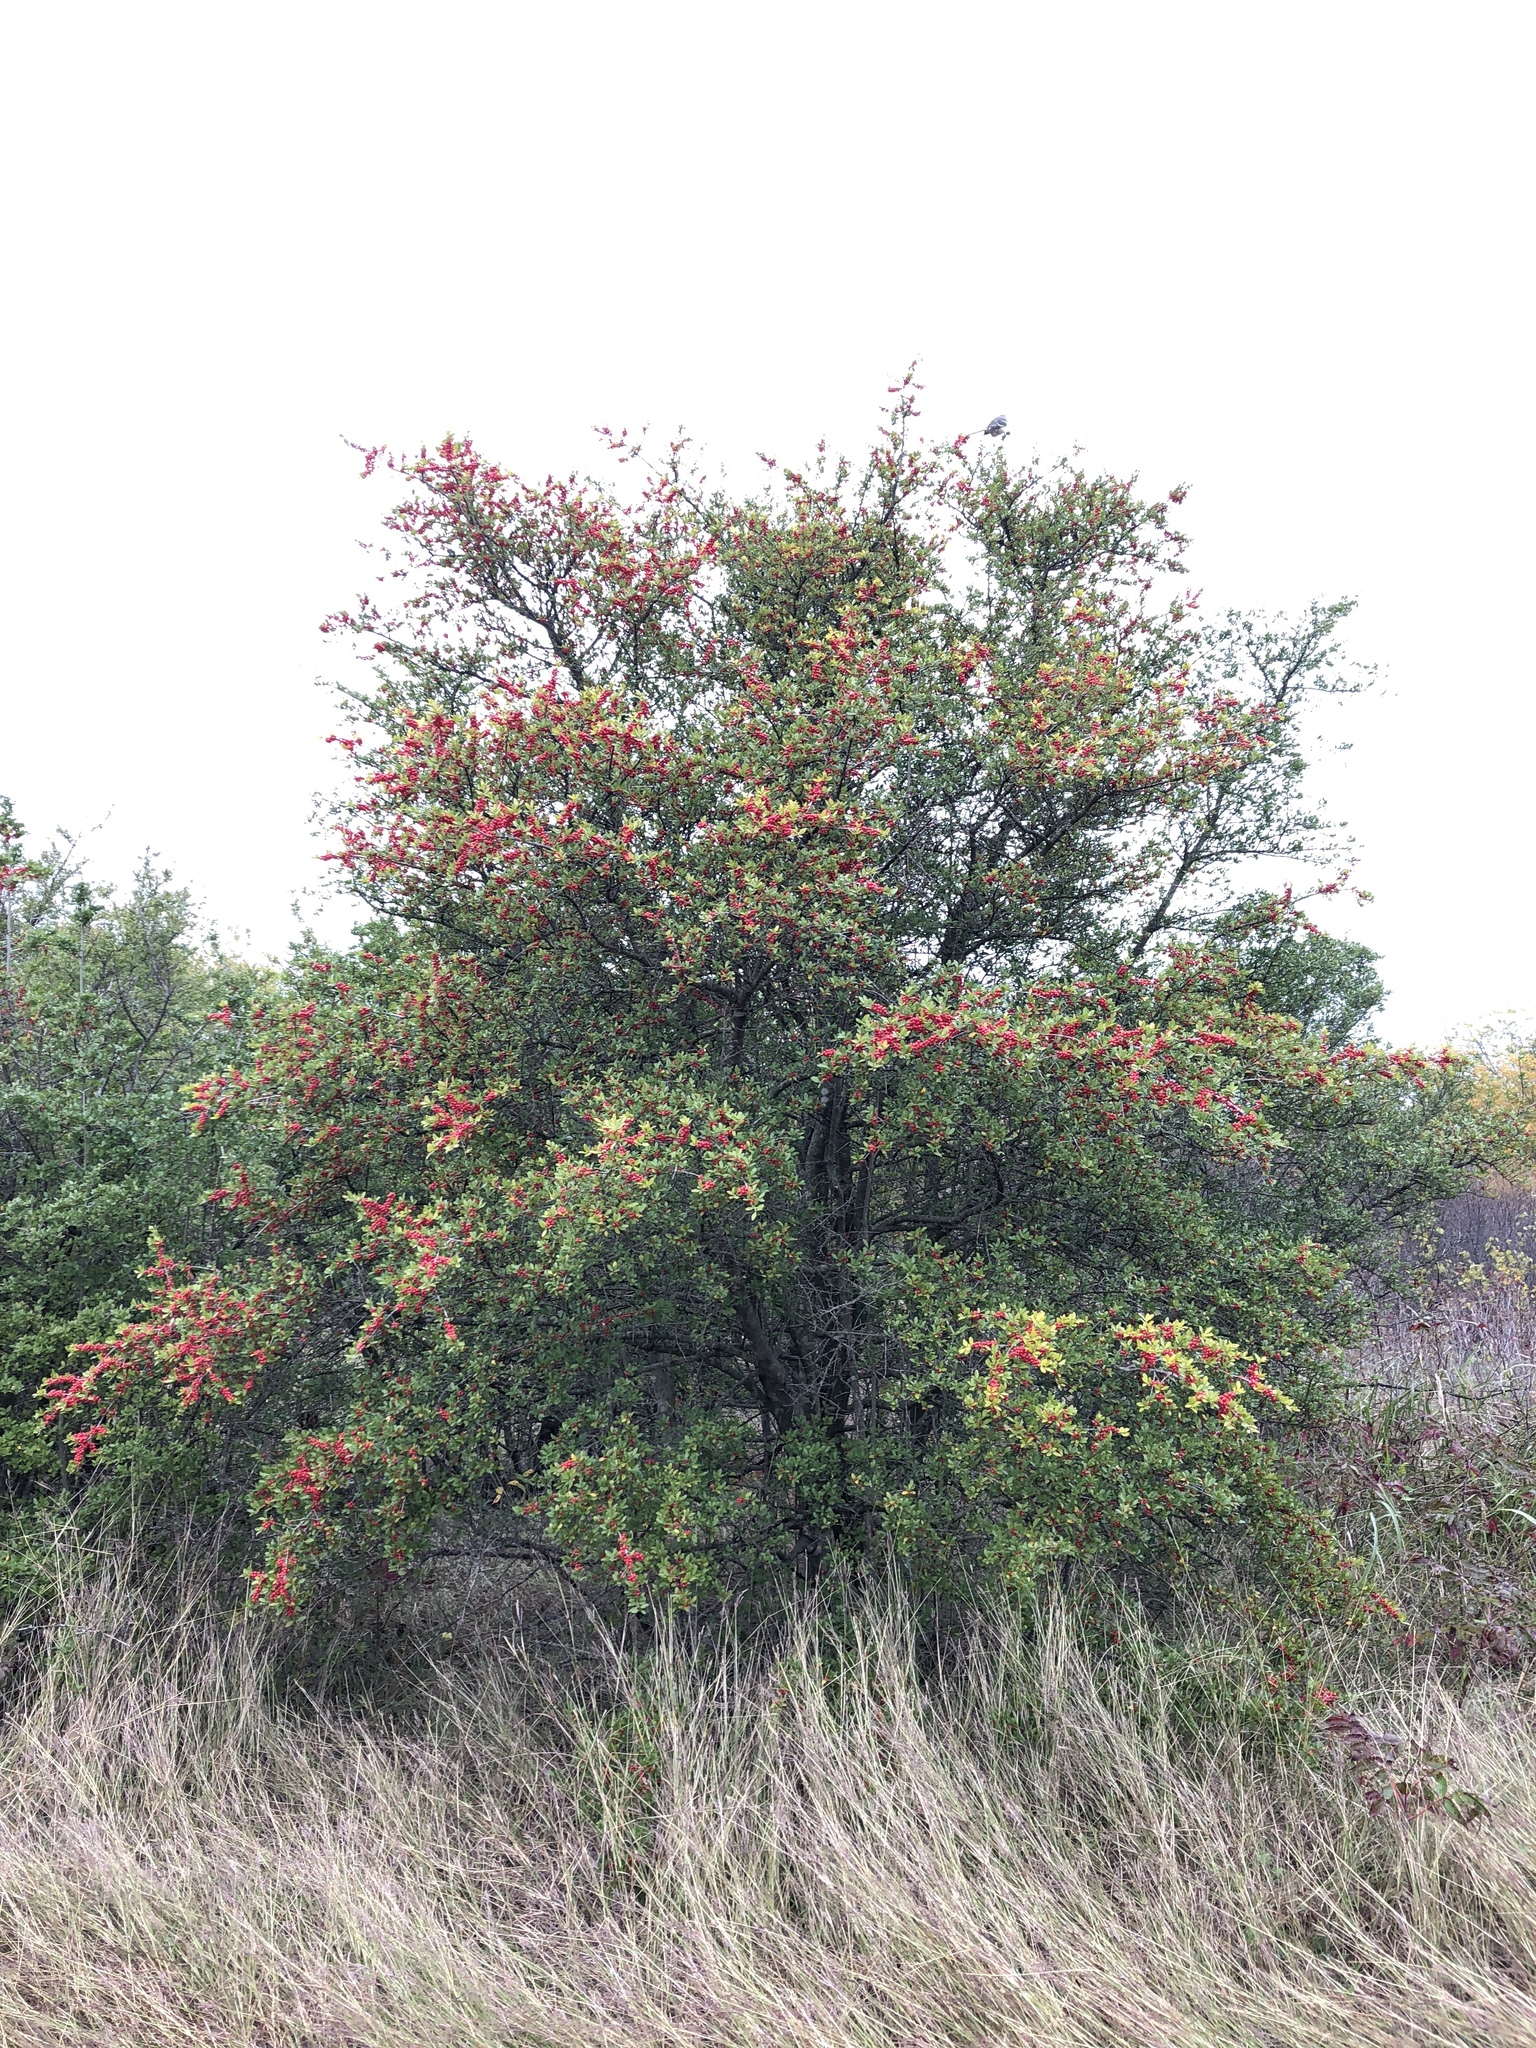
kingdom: Plantae
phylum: Tracheophyta
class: Magnoliopsida
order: Aquifoliales
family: Aquifoliaceae
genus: Ilex
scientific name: Ilex vomitoria
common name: Yaupon holly
